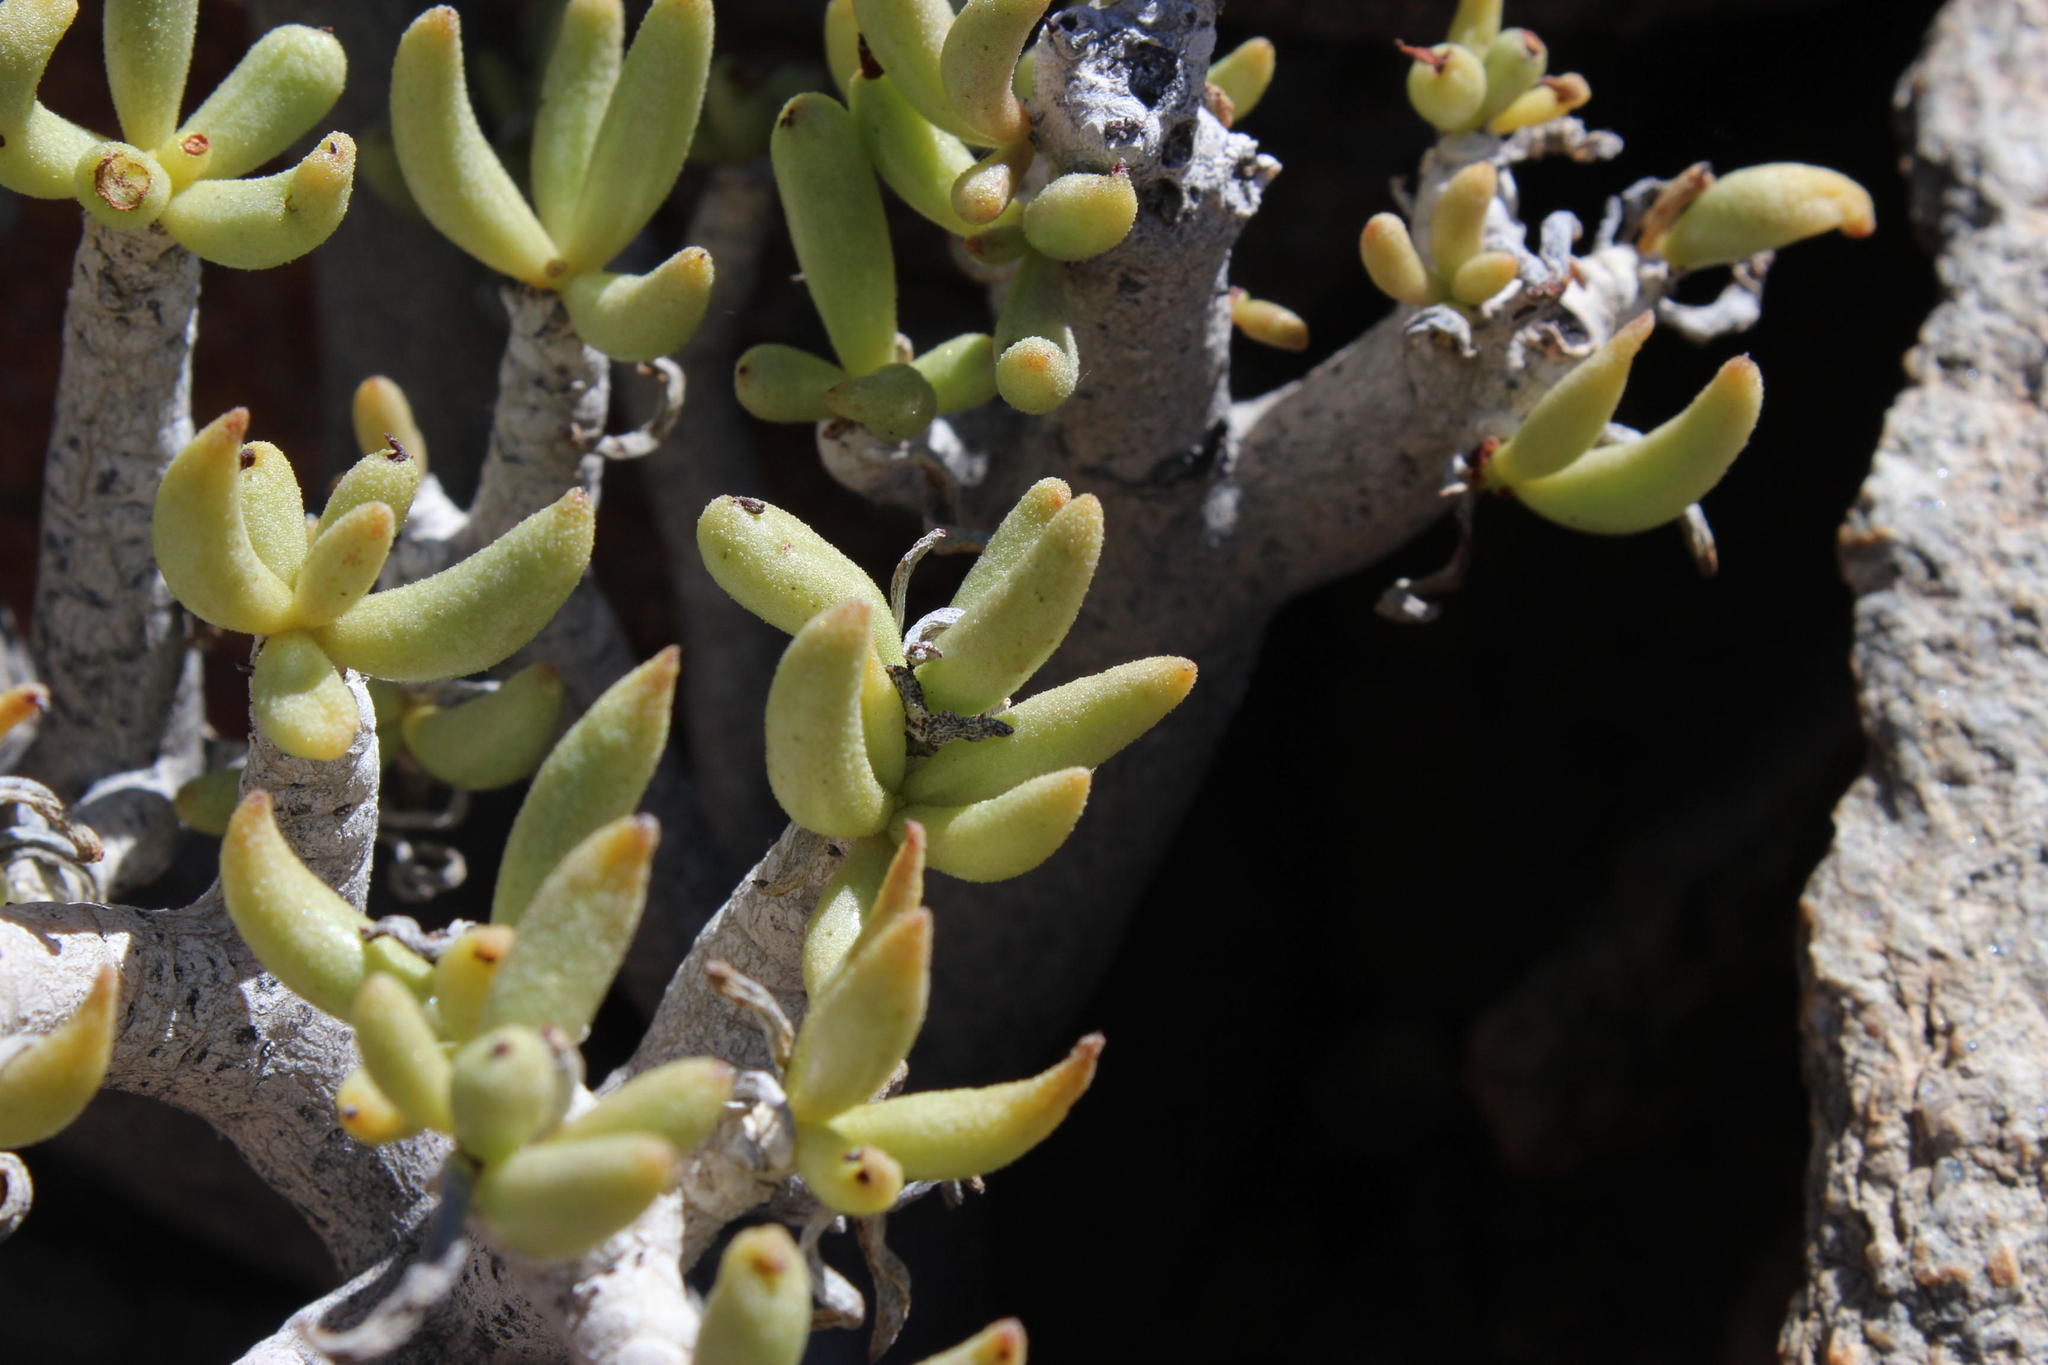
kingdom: Plantae
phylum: Tracheophyta
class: Magnoliopsida
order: Saxifragales
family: Crassulaceae
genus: Tylecodon
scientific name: Tylecodon hallii
